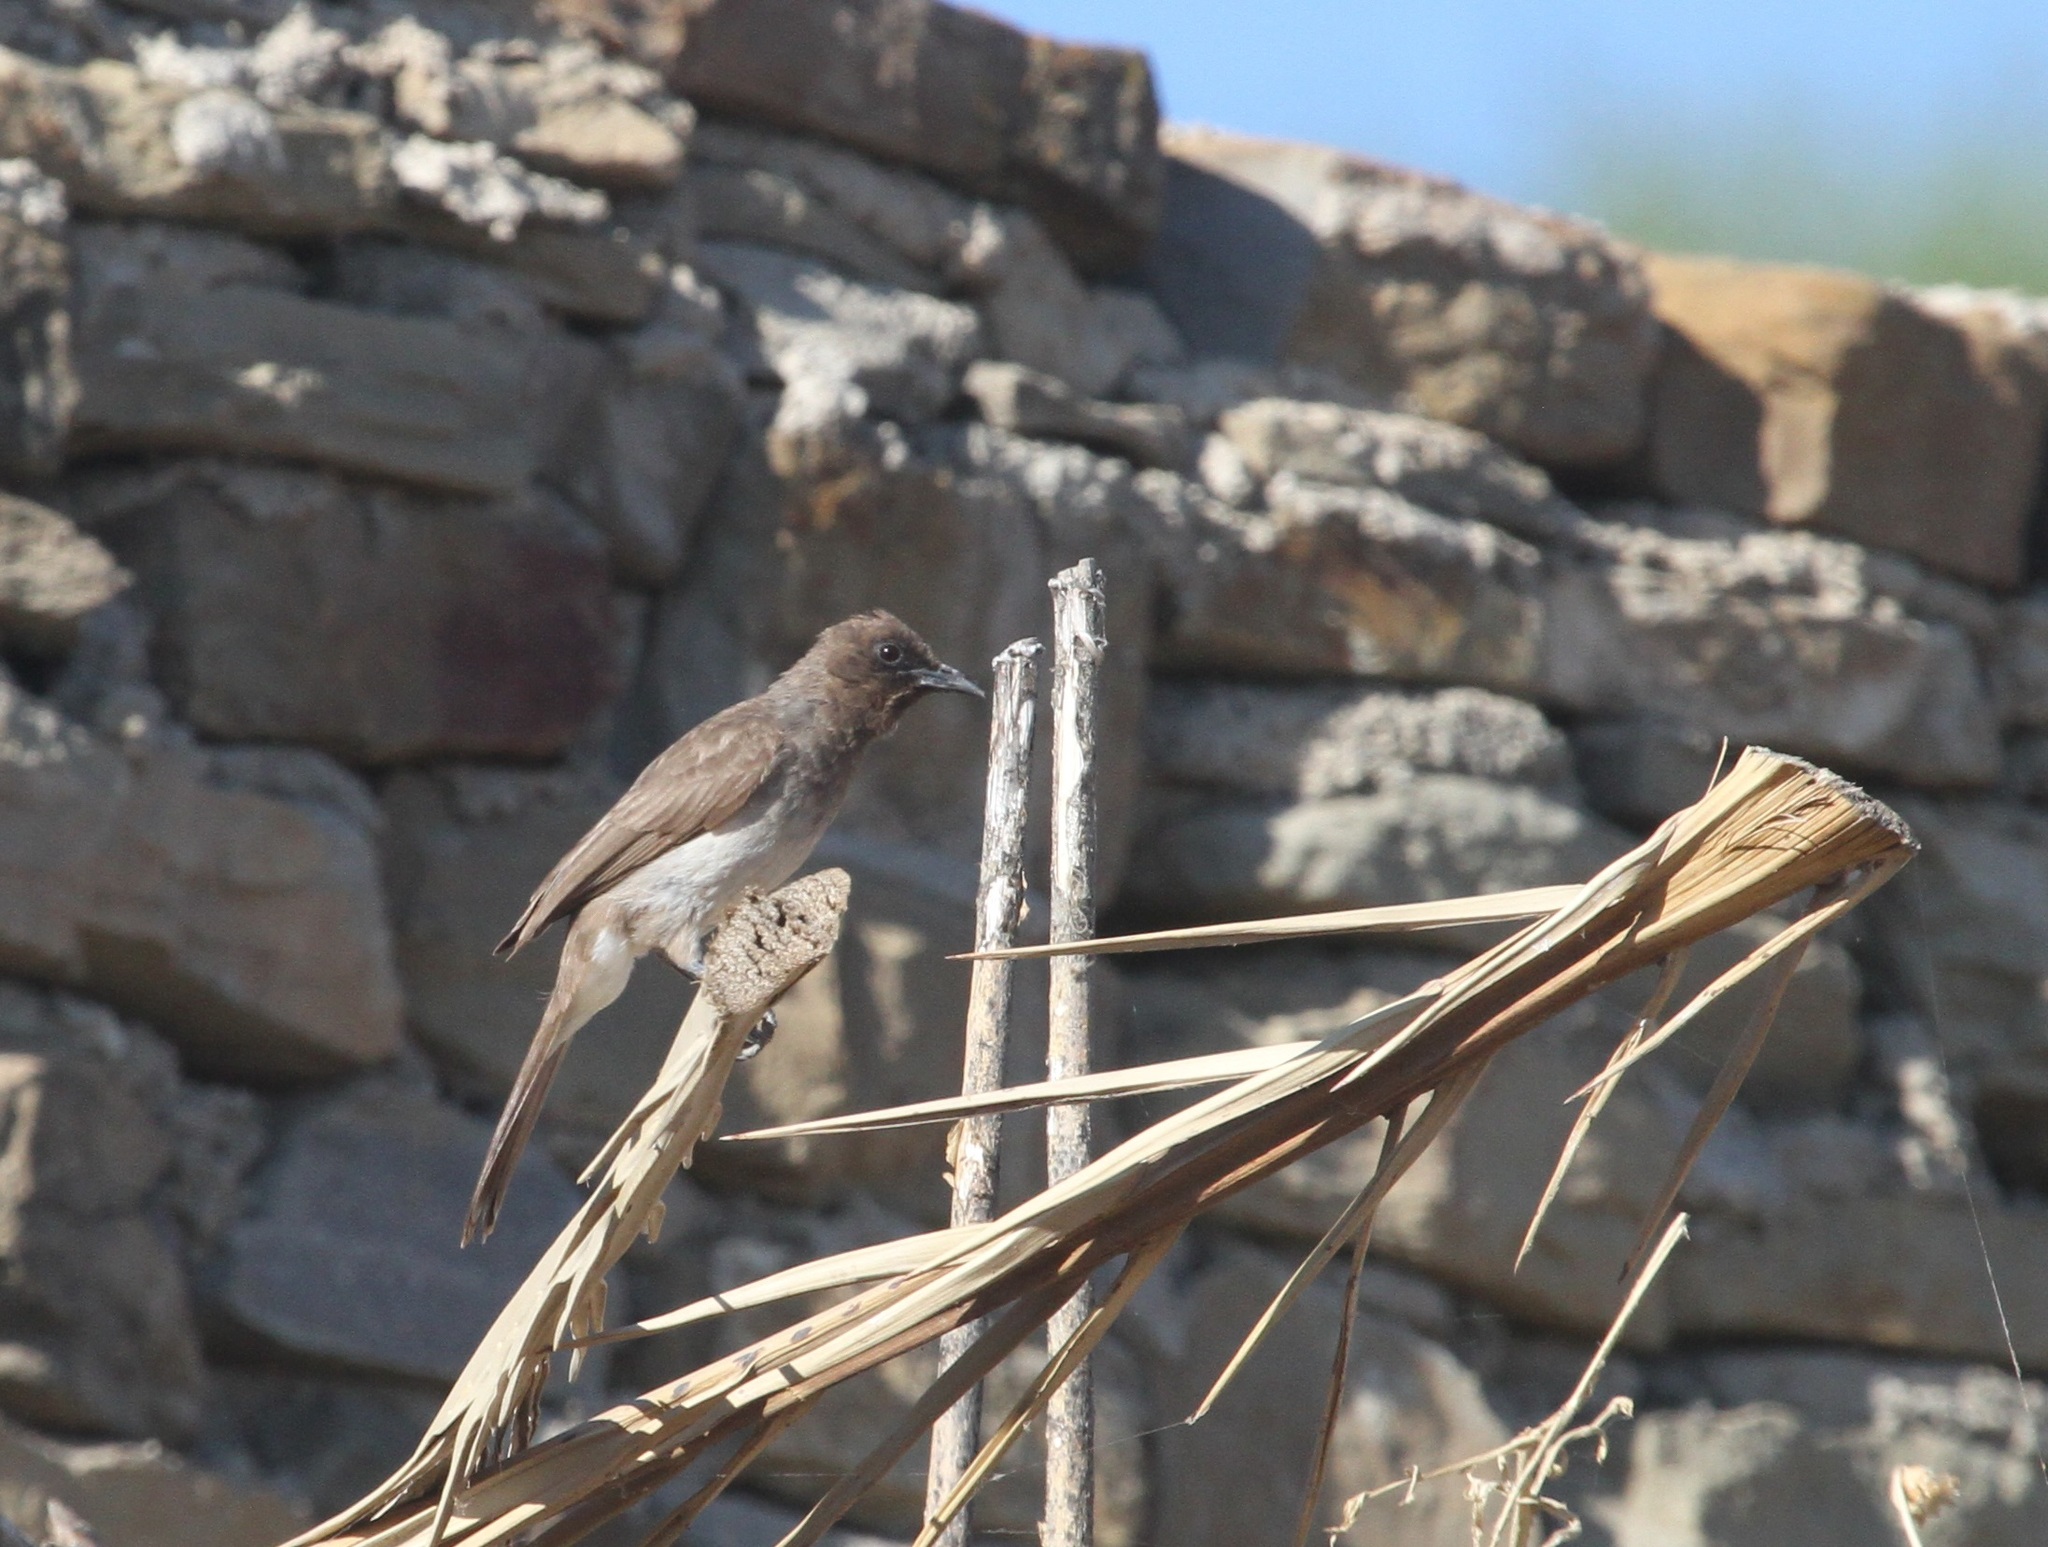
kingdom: Animalia
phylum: Chordata
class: Aves
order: Passeriformes
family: Pycnonotidae
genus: Pycnonotus
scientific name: Pycnonotus barbatus
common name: Common bulbul
